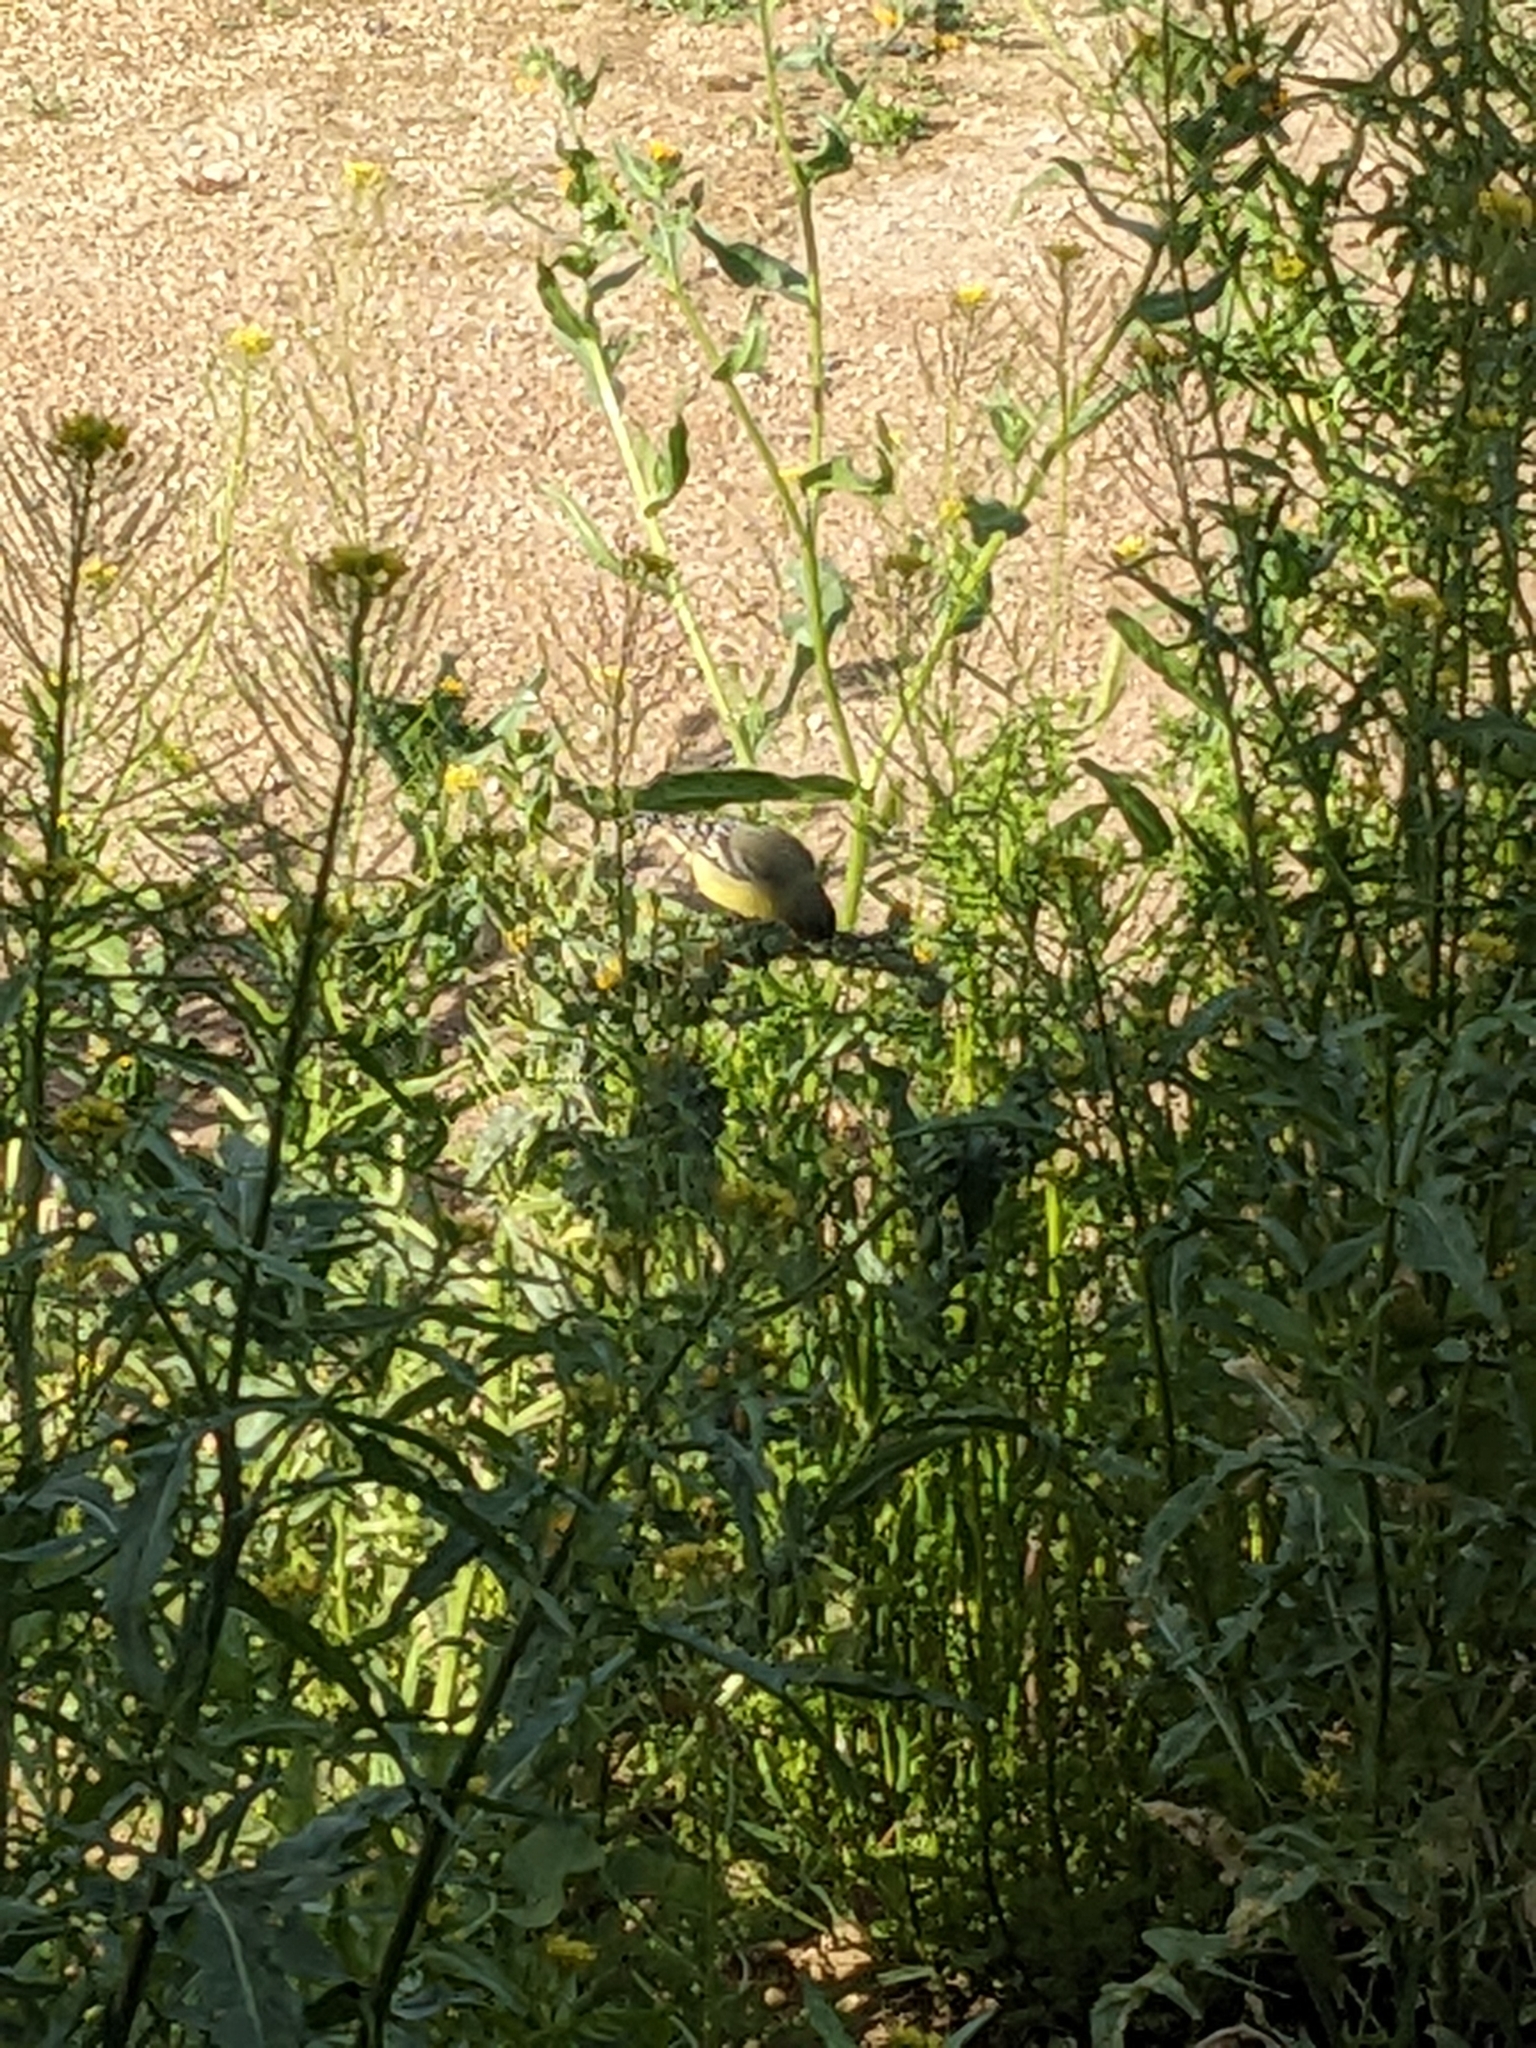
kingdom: Animalia
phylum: Chordata
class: Aves
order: Passeriformes
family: Fringillidae
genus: Spinus
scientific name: Spinus psaltria
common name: Lesser goldfinch
